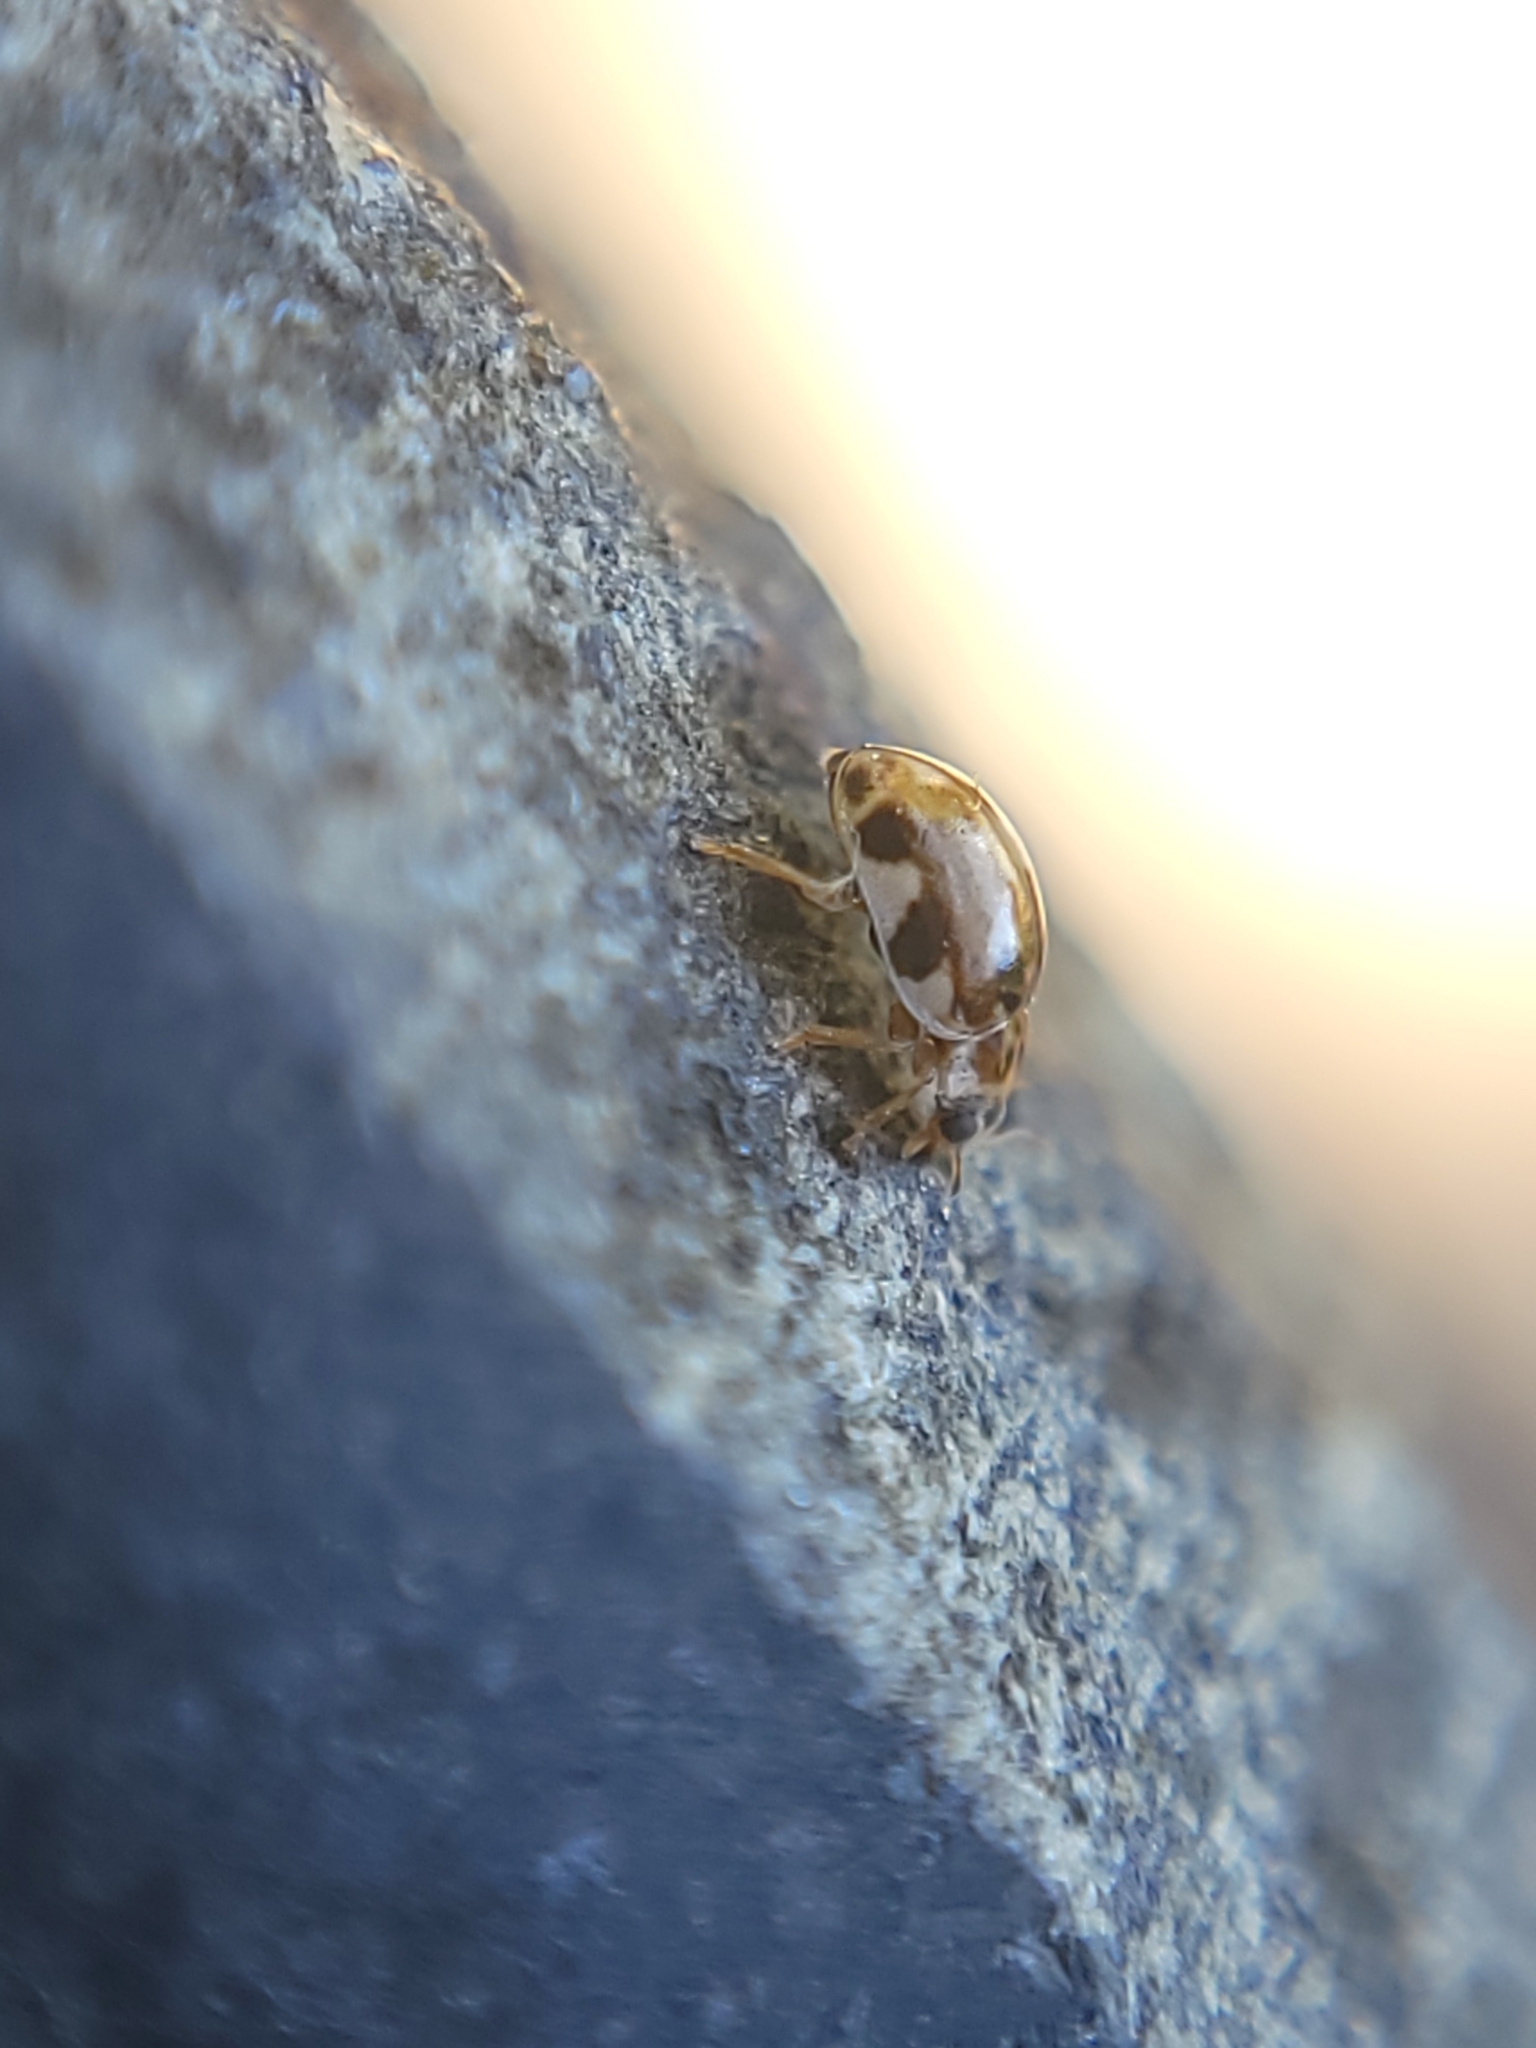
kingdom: Animalia
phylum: Arthropoda
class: Insecta
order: Coleoptera
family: Coccinellidae
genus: Psyllobora
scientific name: Psyllobora vigintimaculata
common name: Ladybird beetle
